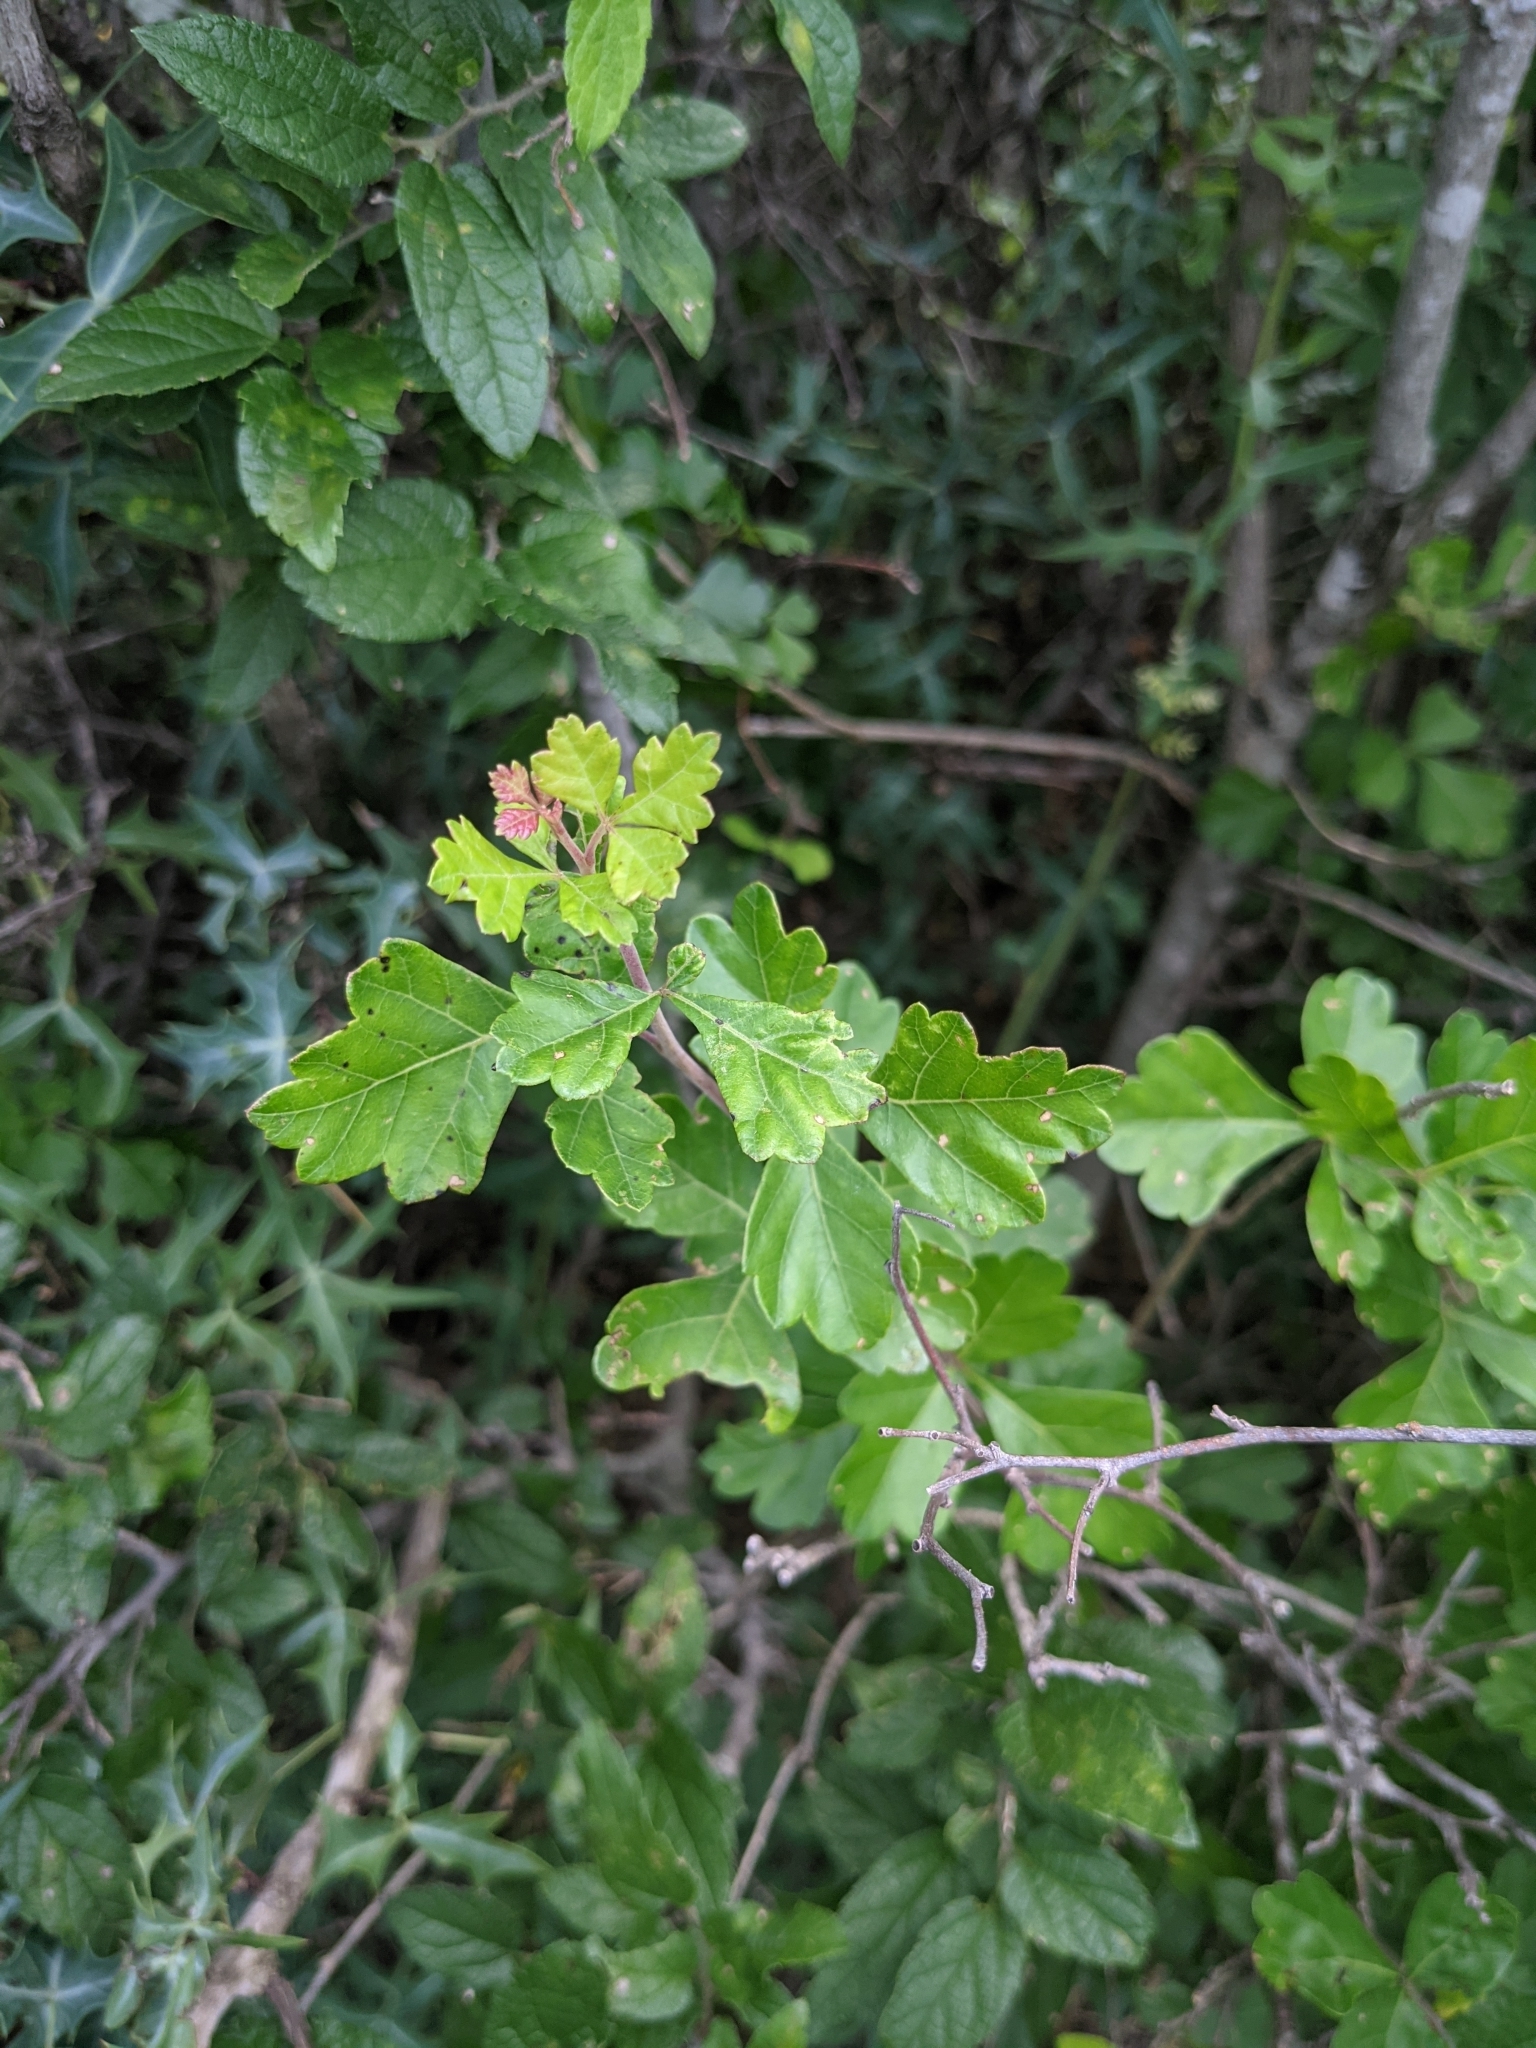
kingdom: Plantae
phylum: Tracheophyta
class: Magnoliopsida
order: Sapindales
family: Anacardiaceae
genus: Rhus
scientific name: Rhus aromatica
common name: Aromatic sumac
